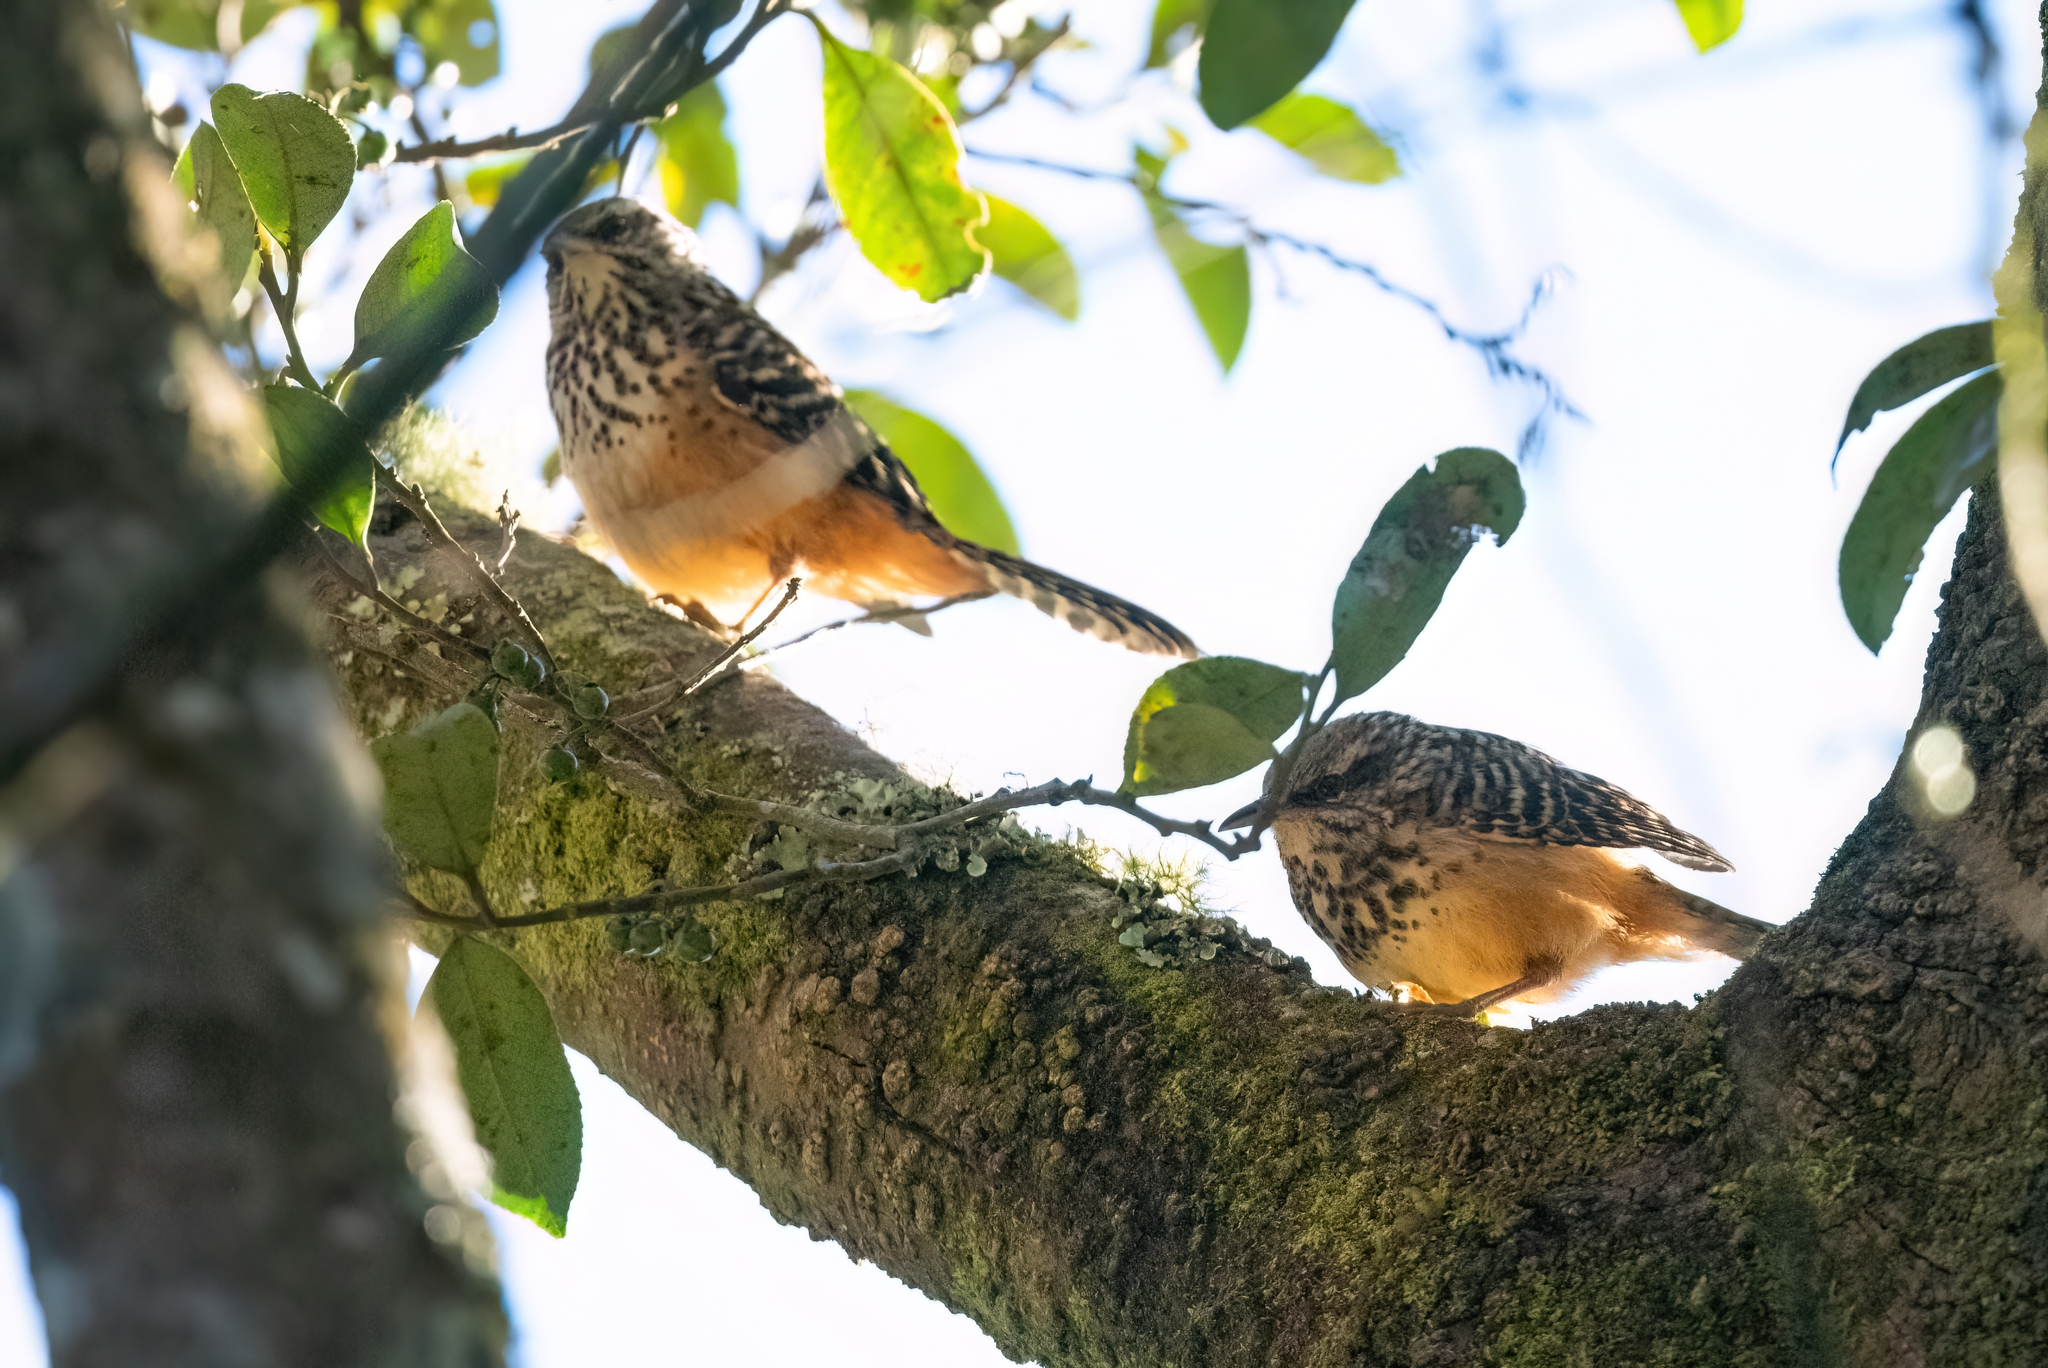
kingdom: Animalia
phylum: Chordata
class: Aves
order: Passeriformes
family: Troglodytidae
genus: Campylorhynchus
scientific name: Campylorhynchus zonatus
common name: Band-backed wren
